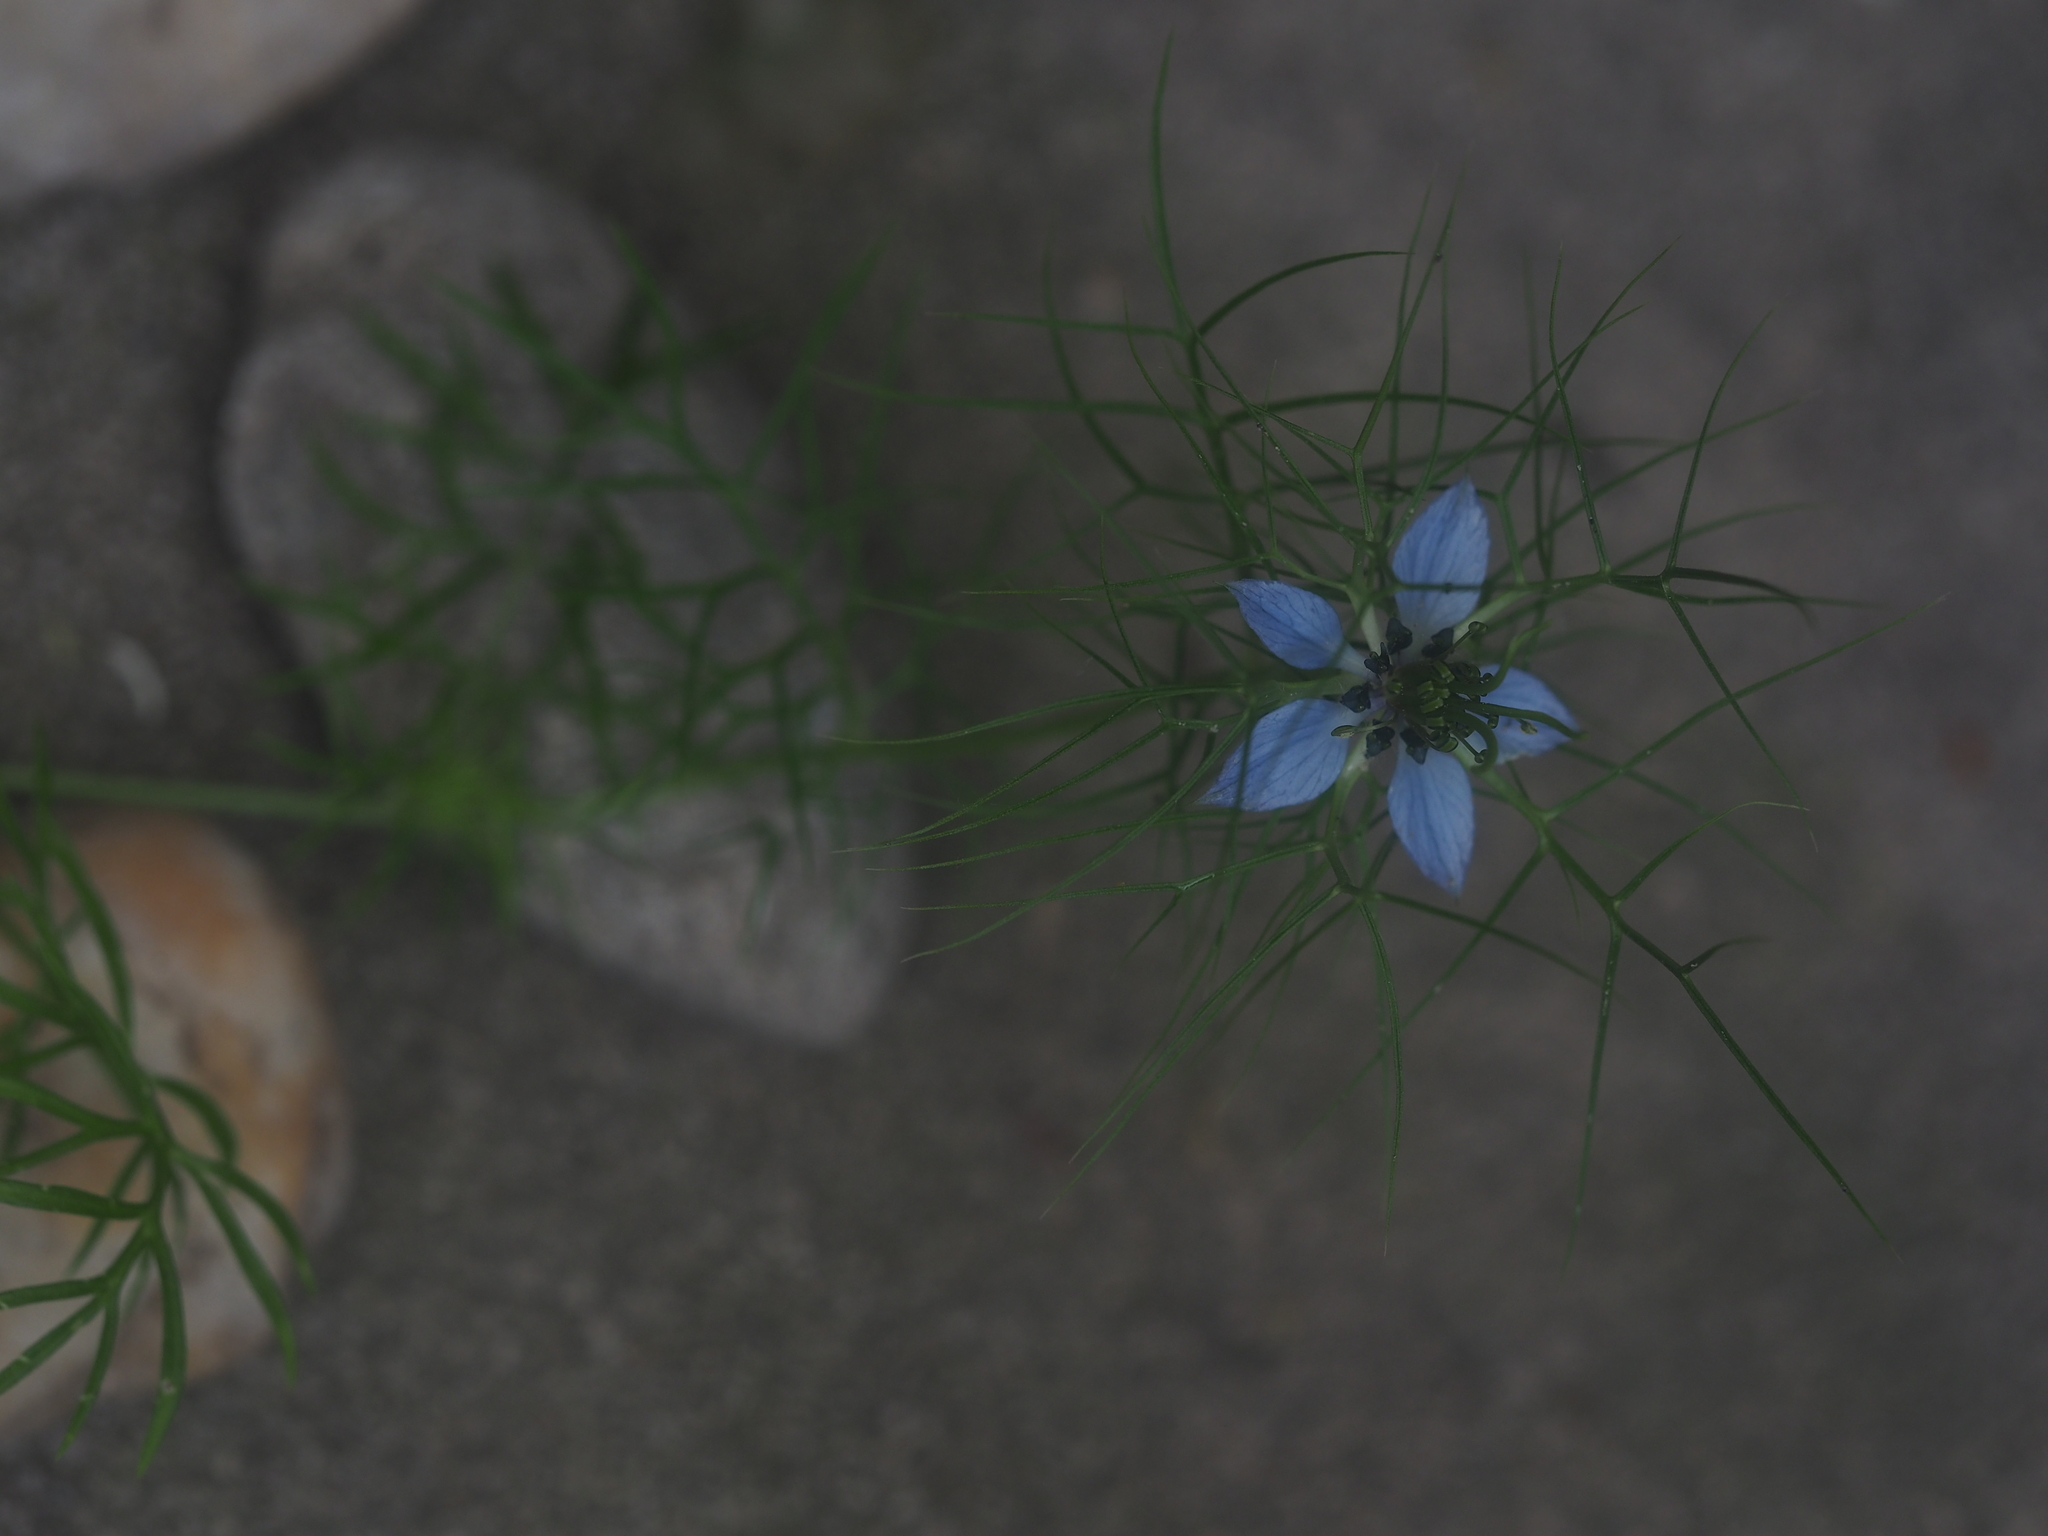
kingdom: Plantae
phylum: Tracheophyta
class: Magnoliopsida
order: Ranunculales
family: Ranunculaceae
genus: Nigella
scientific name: Nigella damascena
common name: Love-in-a-mist
